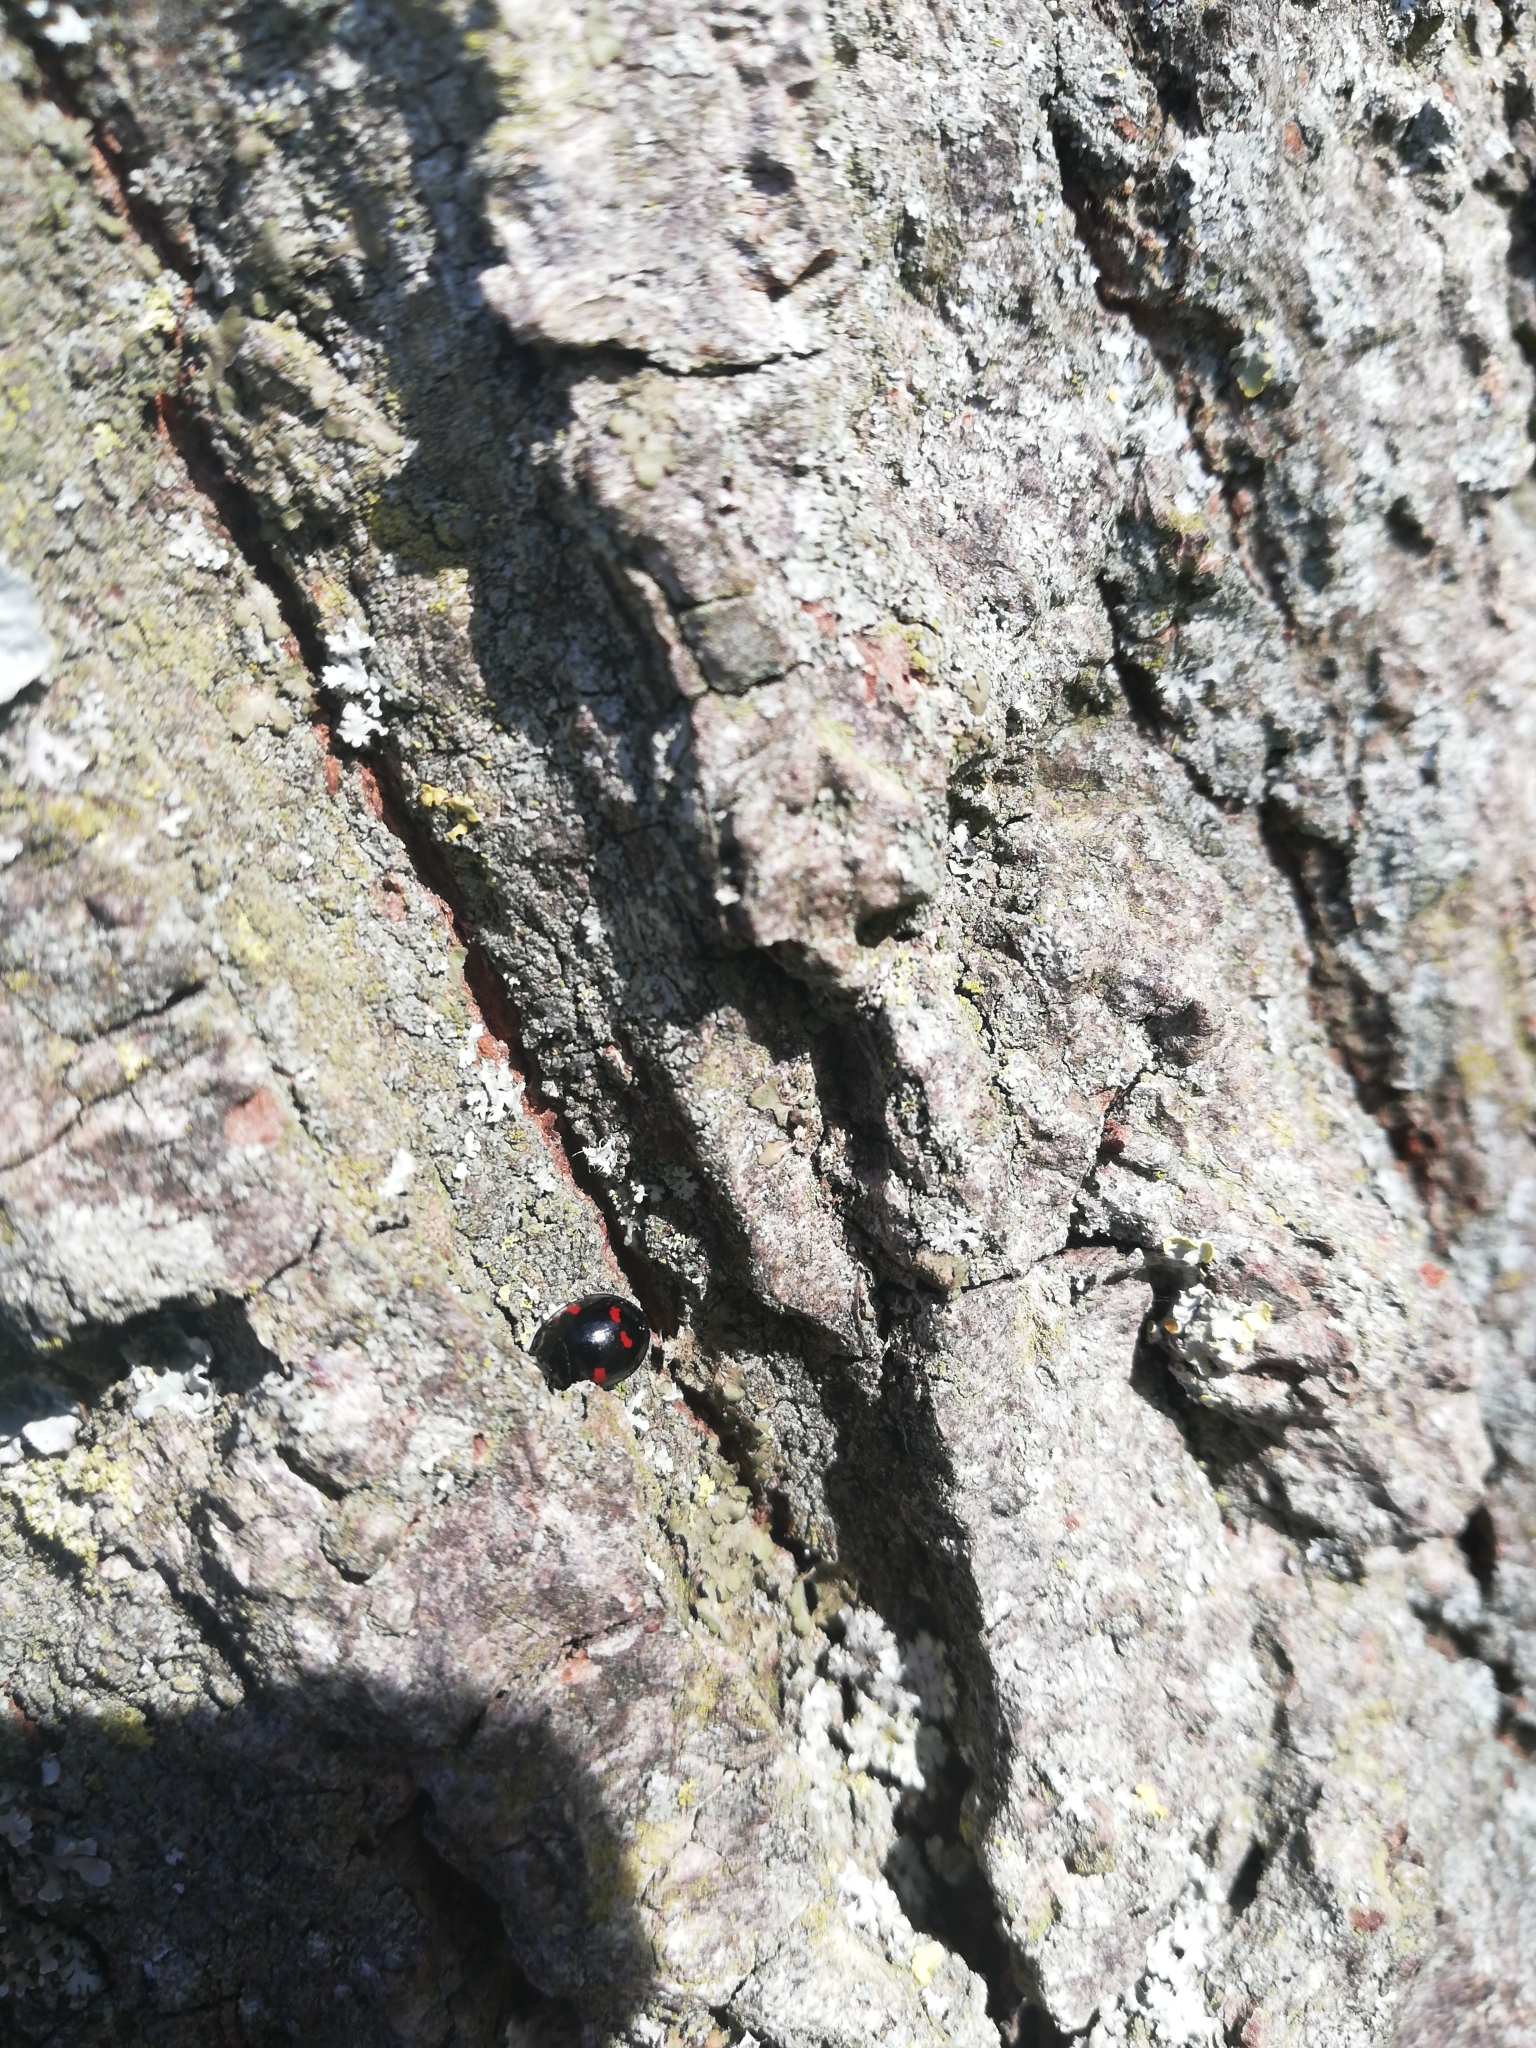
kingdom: Animalia
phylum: Arthropoda
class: Insecta
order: Coleoptera
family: Coccinellidae
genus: Brumus
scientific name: Brumus quadripustulatus
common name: Ladybird beetle
